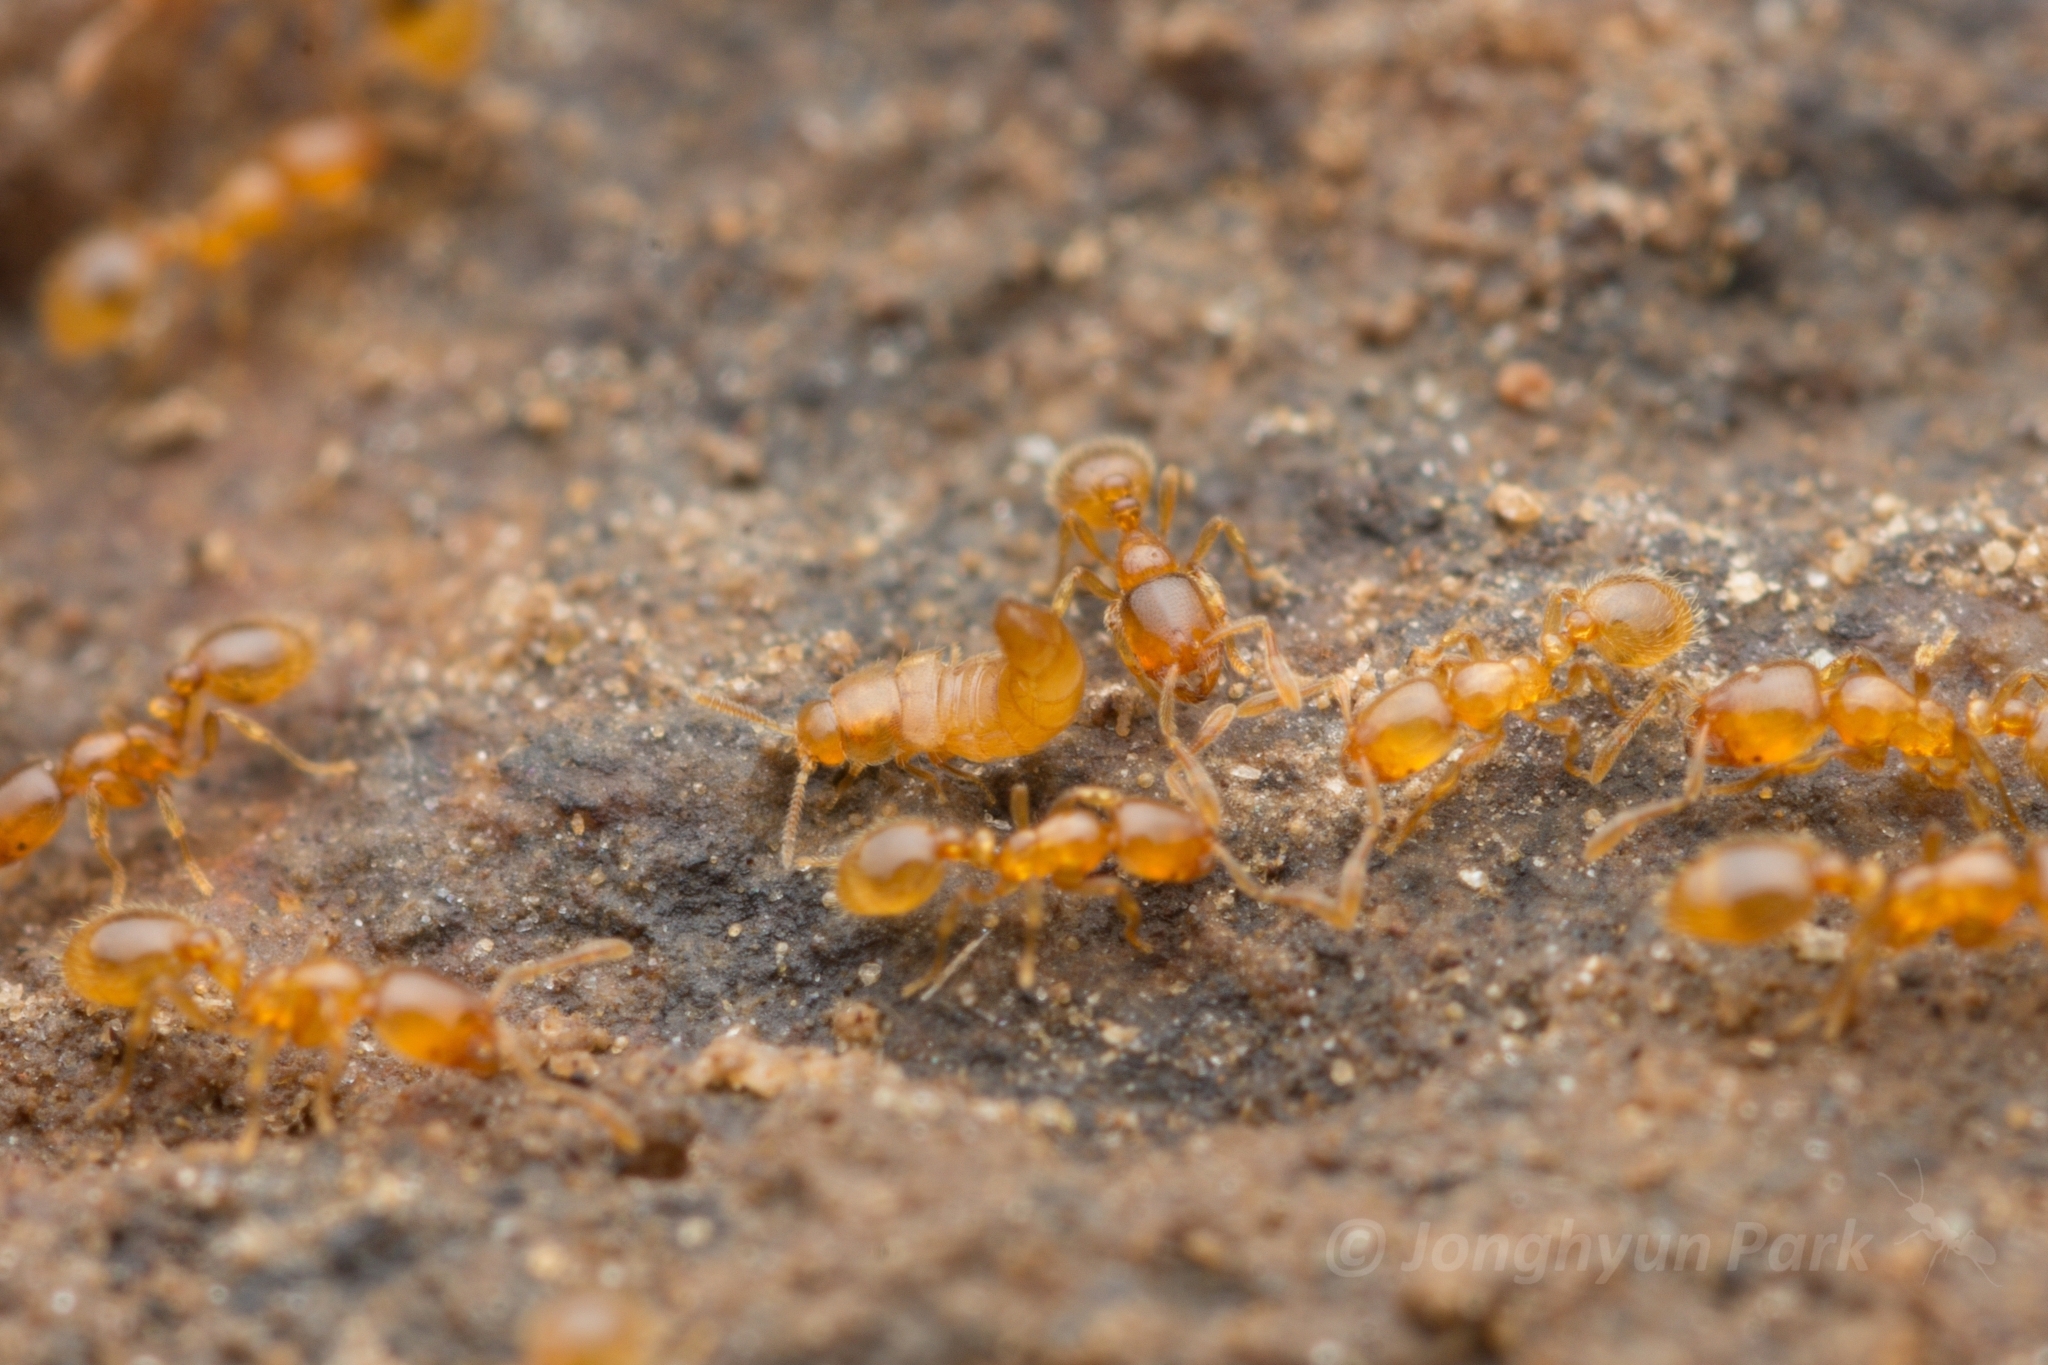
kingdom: Animalia
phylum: Arthropoda
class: Insecta
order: Hymenoptera
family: Formicidae
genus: Solenopsis
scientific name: Solenopsis japonica
